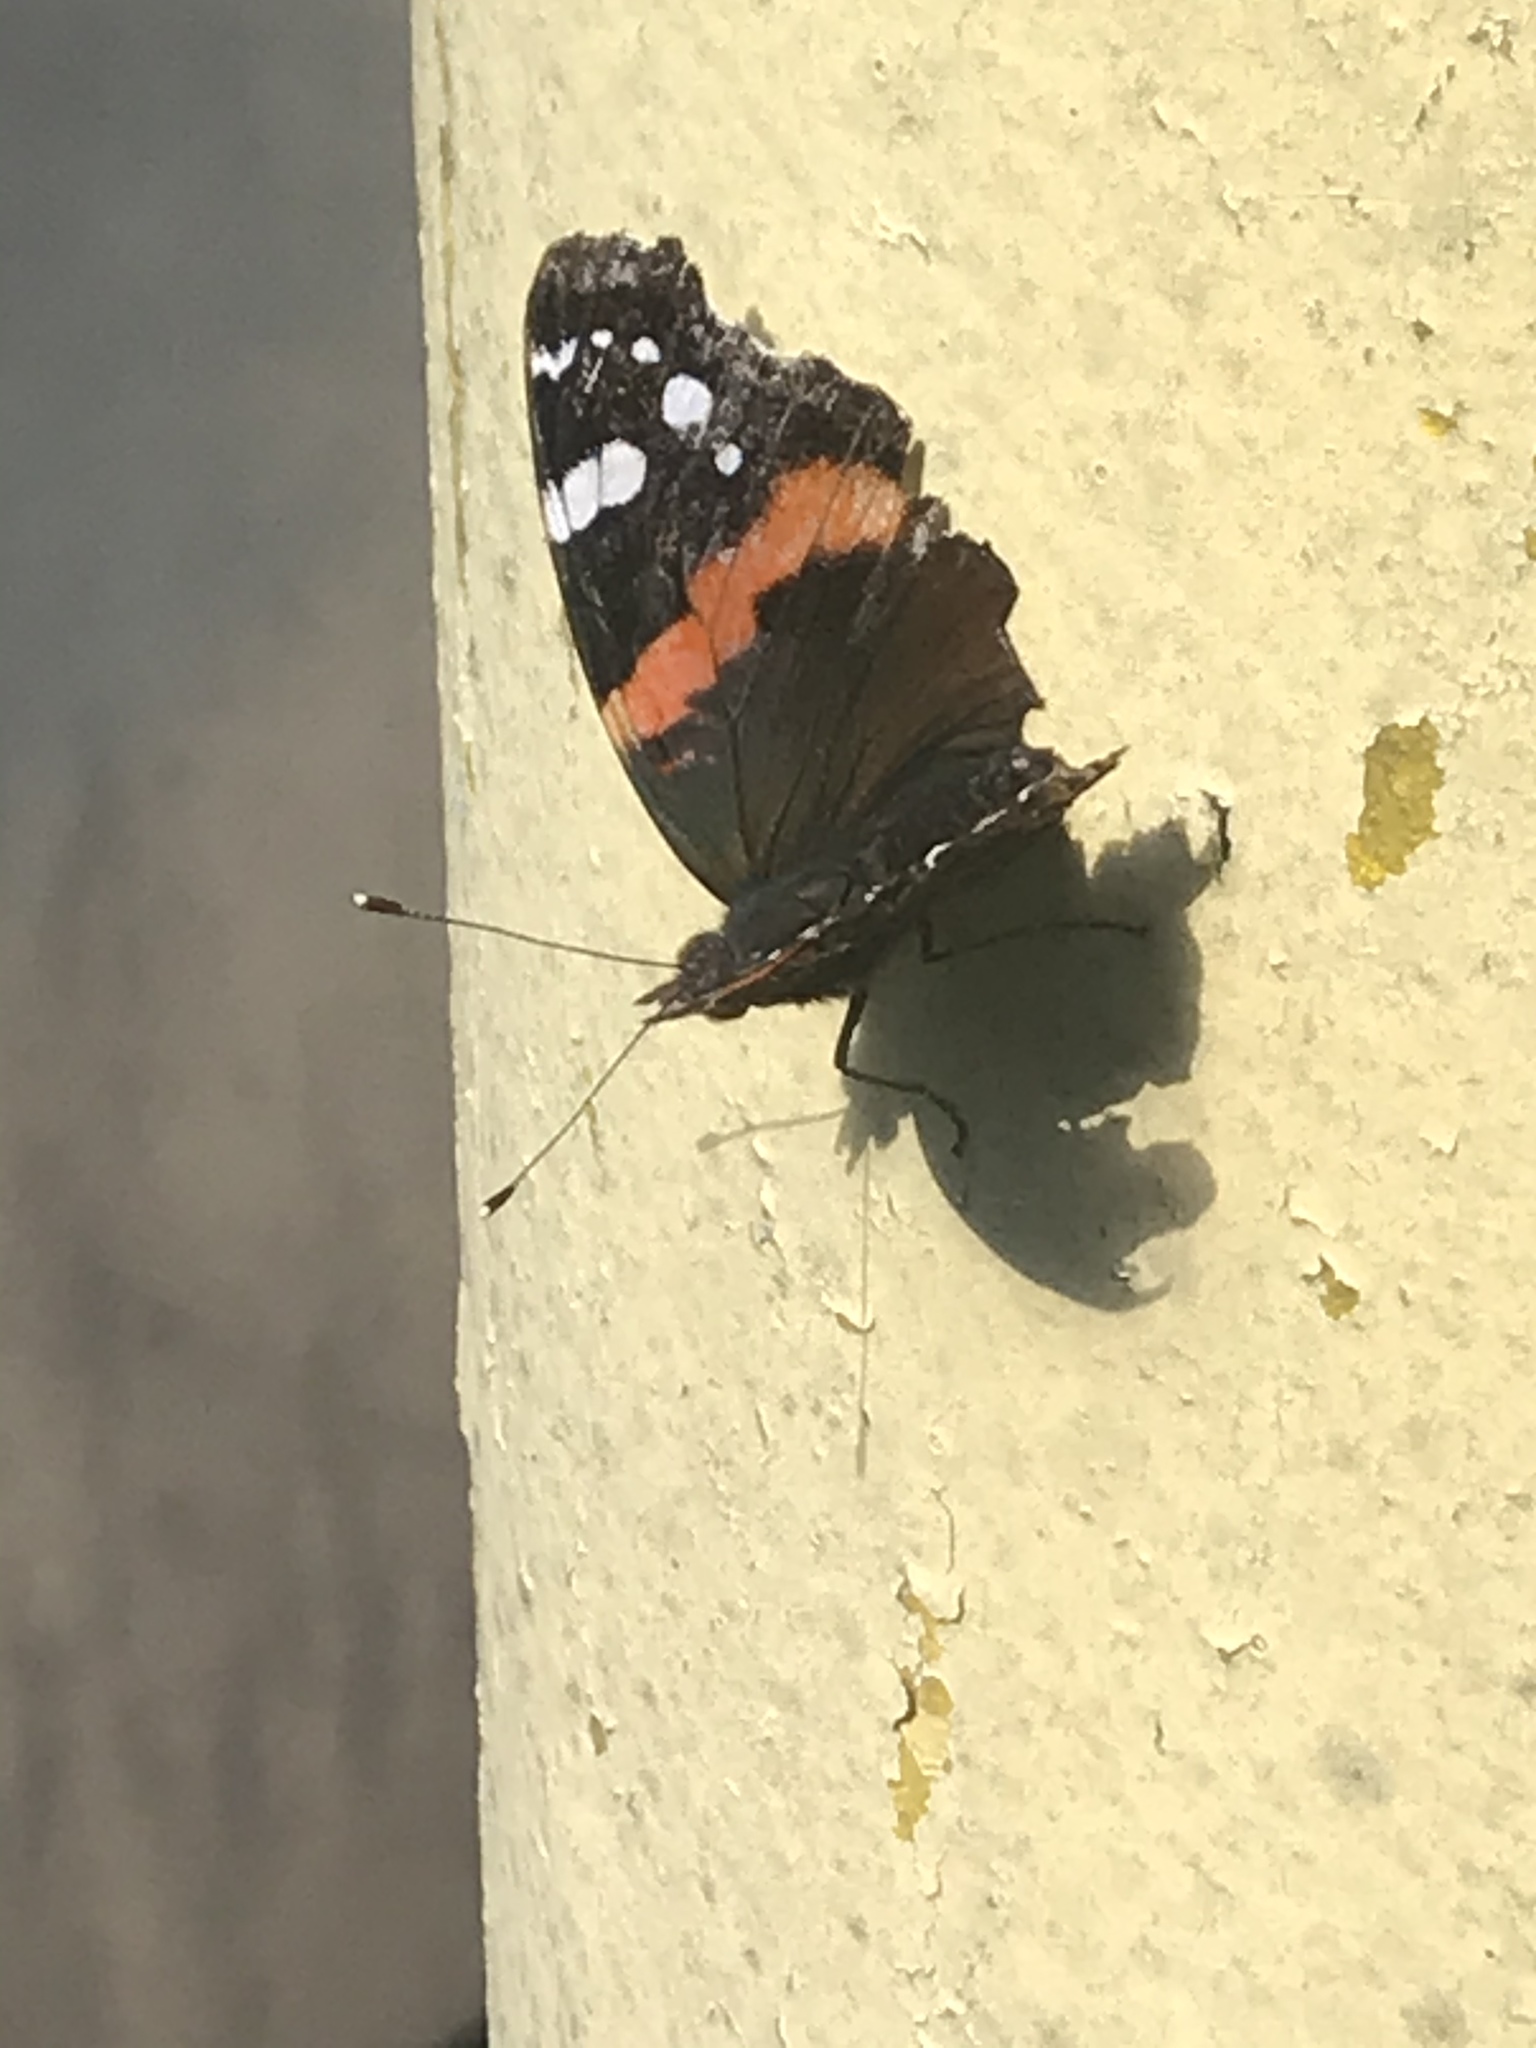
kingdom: Animalia
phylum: Arthropoda
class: Insecta
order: Lepidoptera
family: Nymphalidae
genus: Vanessa
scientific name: Vanessa atalanta
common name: Red admiral
